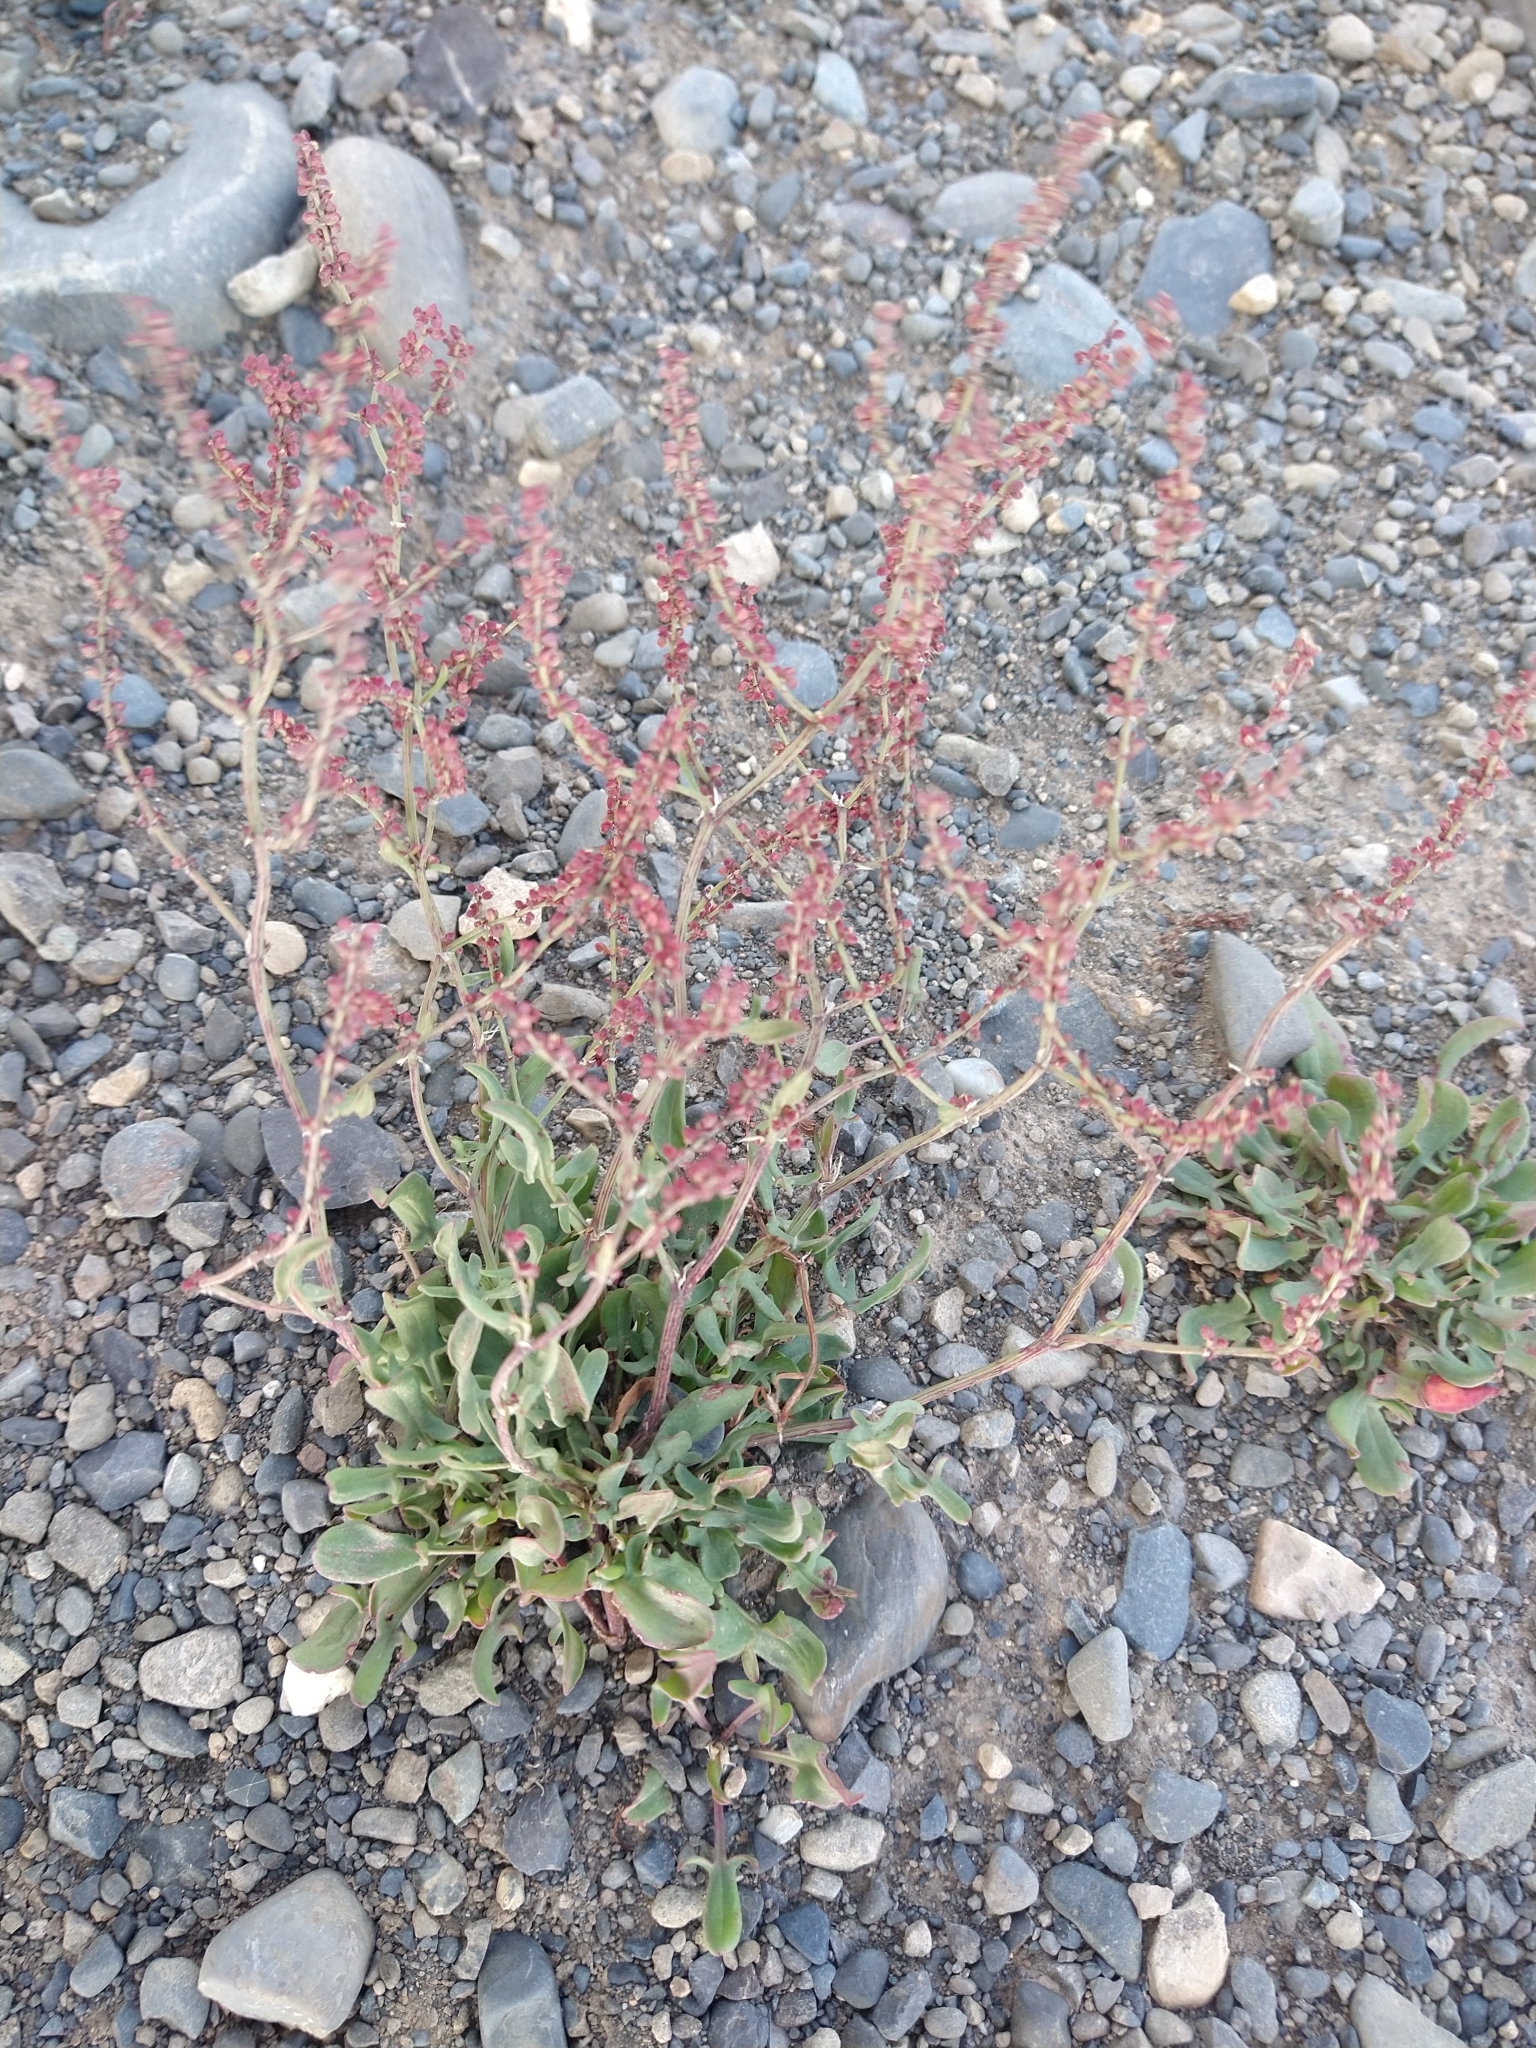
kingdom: Plantae
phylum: Tracheophyta
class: Magnoliopsida
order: Caryophyllales
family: Polygonaceae
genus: Rumex
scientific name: Rumex acetosella
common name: Common sheep sorrel
